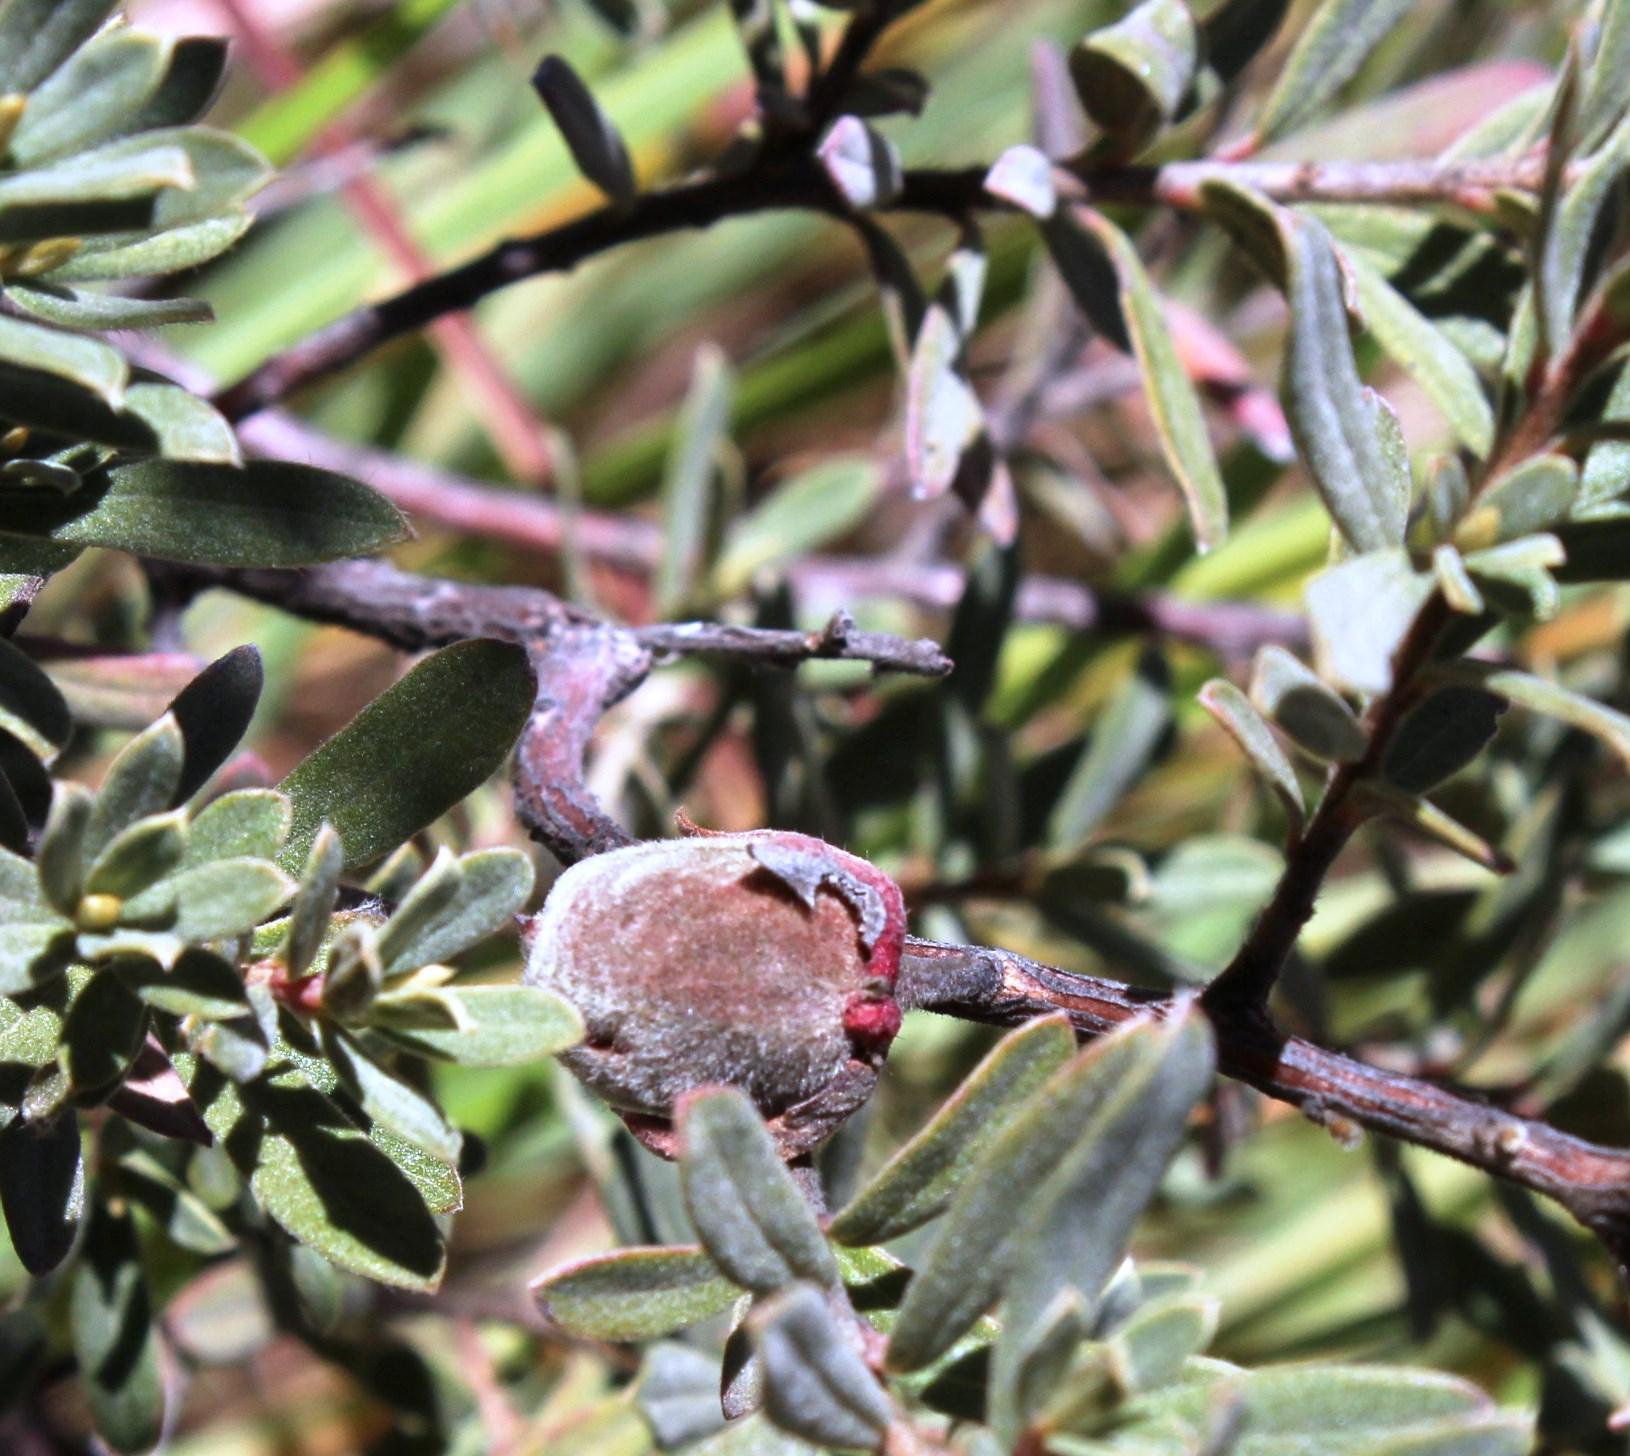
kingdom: Plantae
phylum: Tracheophyta
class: Magnoliopsida
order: Ericales
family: Ebenaceae
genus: Diospyros
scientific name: Diospyros pubescens
